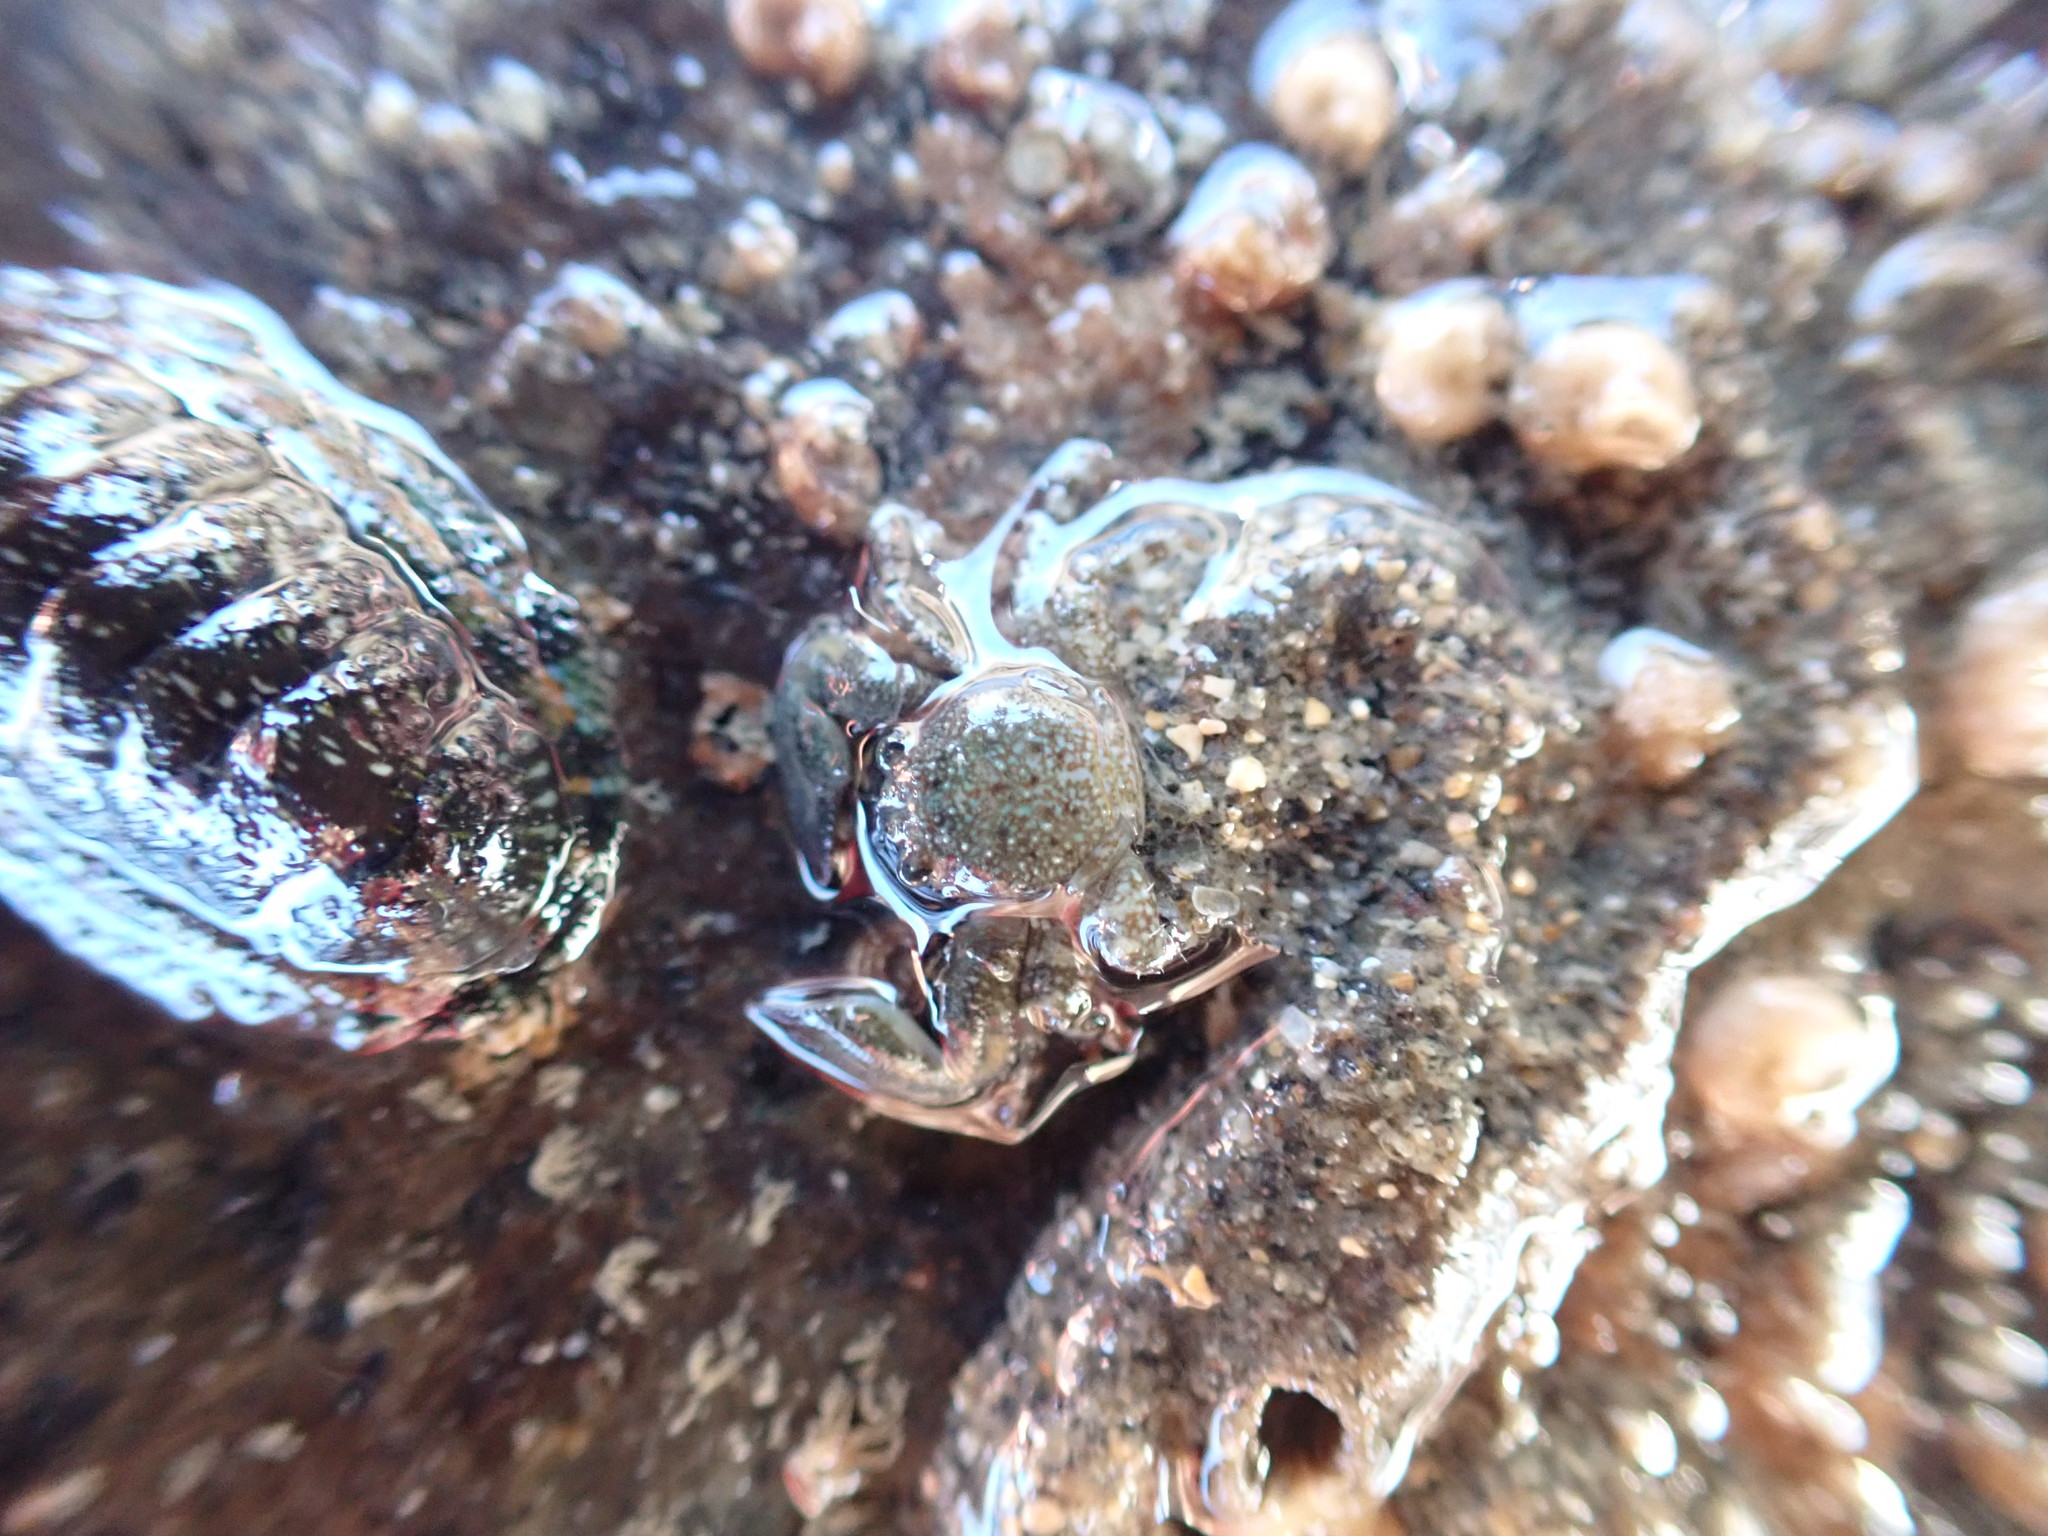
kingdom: Animalia
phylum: Arthropoda
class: Malacostraca
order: Decapoda
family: Porcellanidae
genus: Petrolisthes
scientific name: Petrolisthes elongatus
